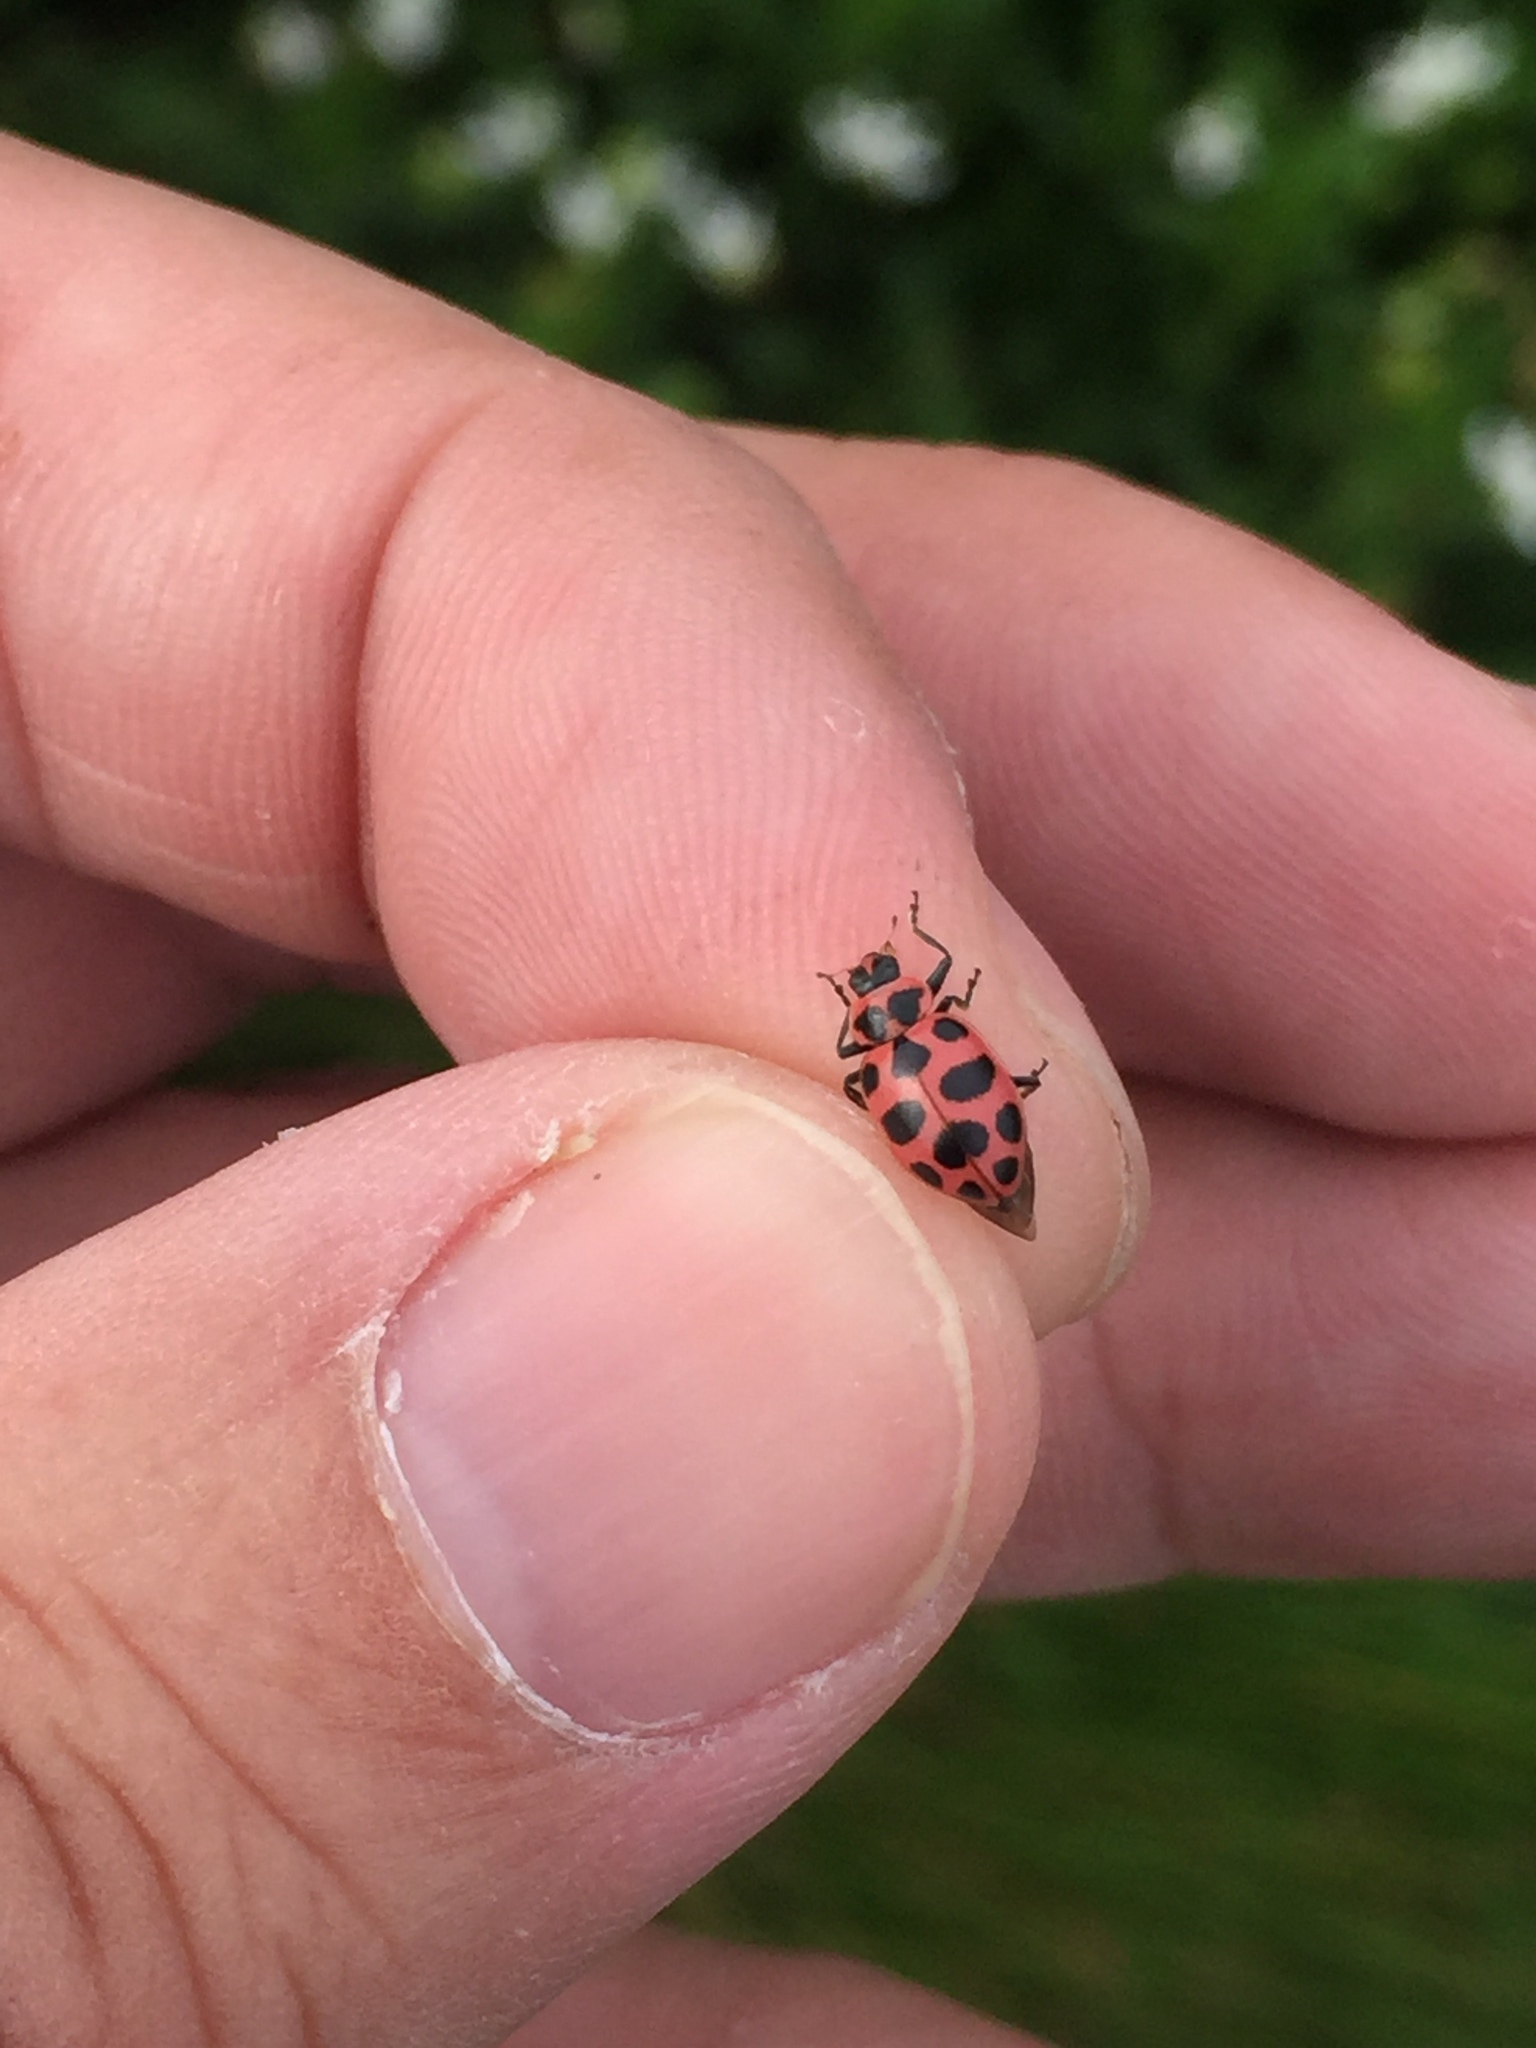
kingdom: Animalia
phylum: Arthropoda
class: Insecta
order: Coleoptera
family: Coccinellidae
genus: Coleomegilla
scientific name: Coleomegilla maculata
